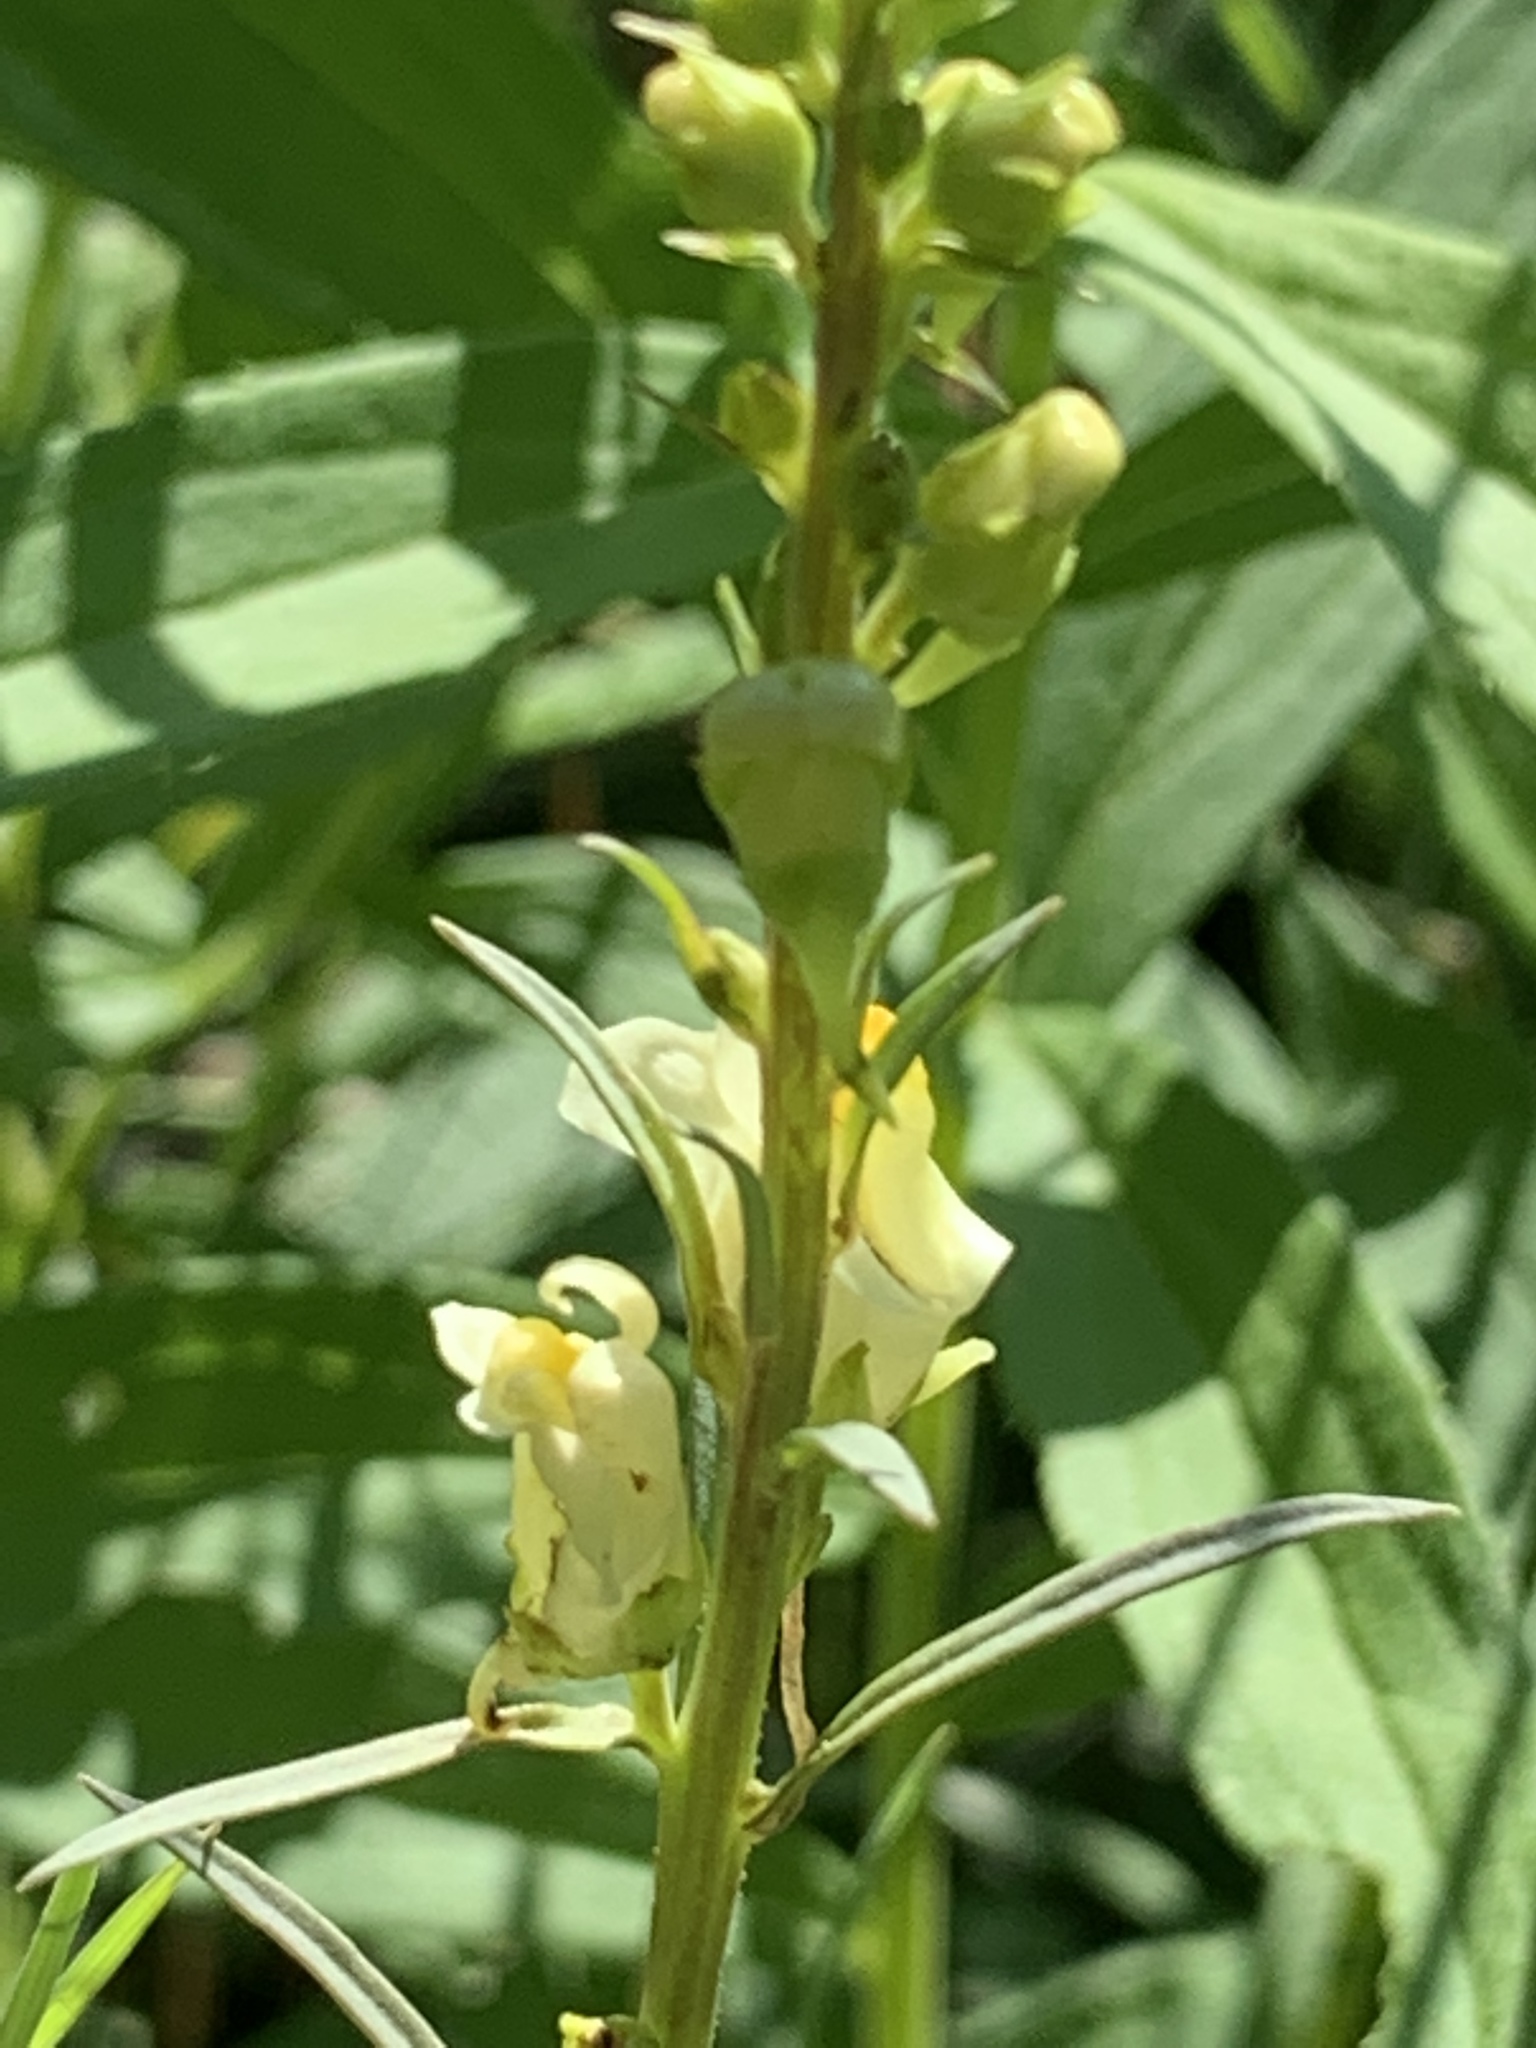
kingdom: Plantae
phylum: Tracheophyta
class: Magnoliopsida
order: Lamiales
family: Plantaginaceae
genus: Linaria
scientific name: Linaria vulgaris
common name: Butter and eggs
